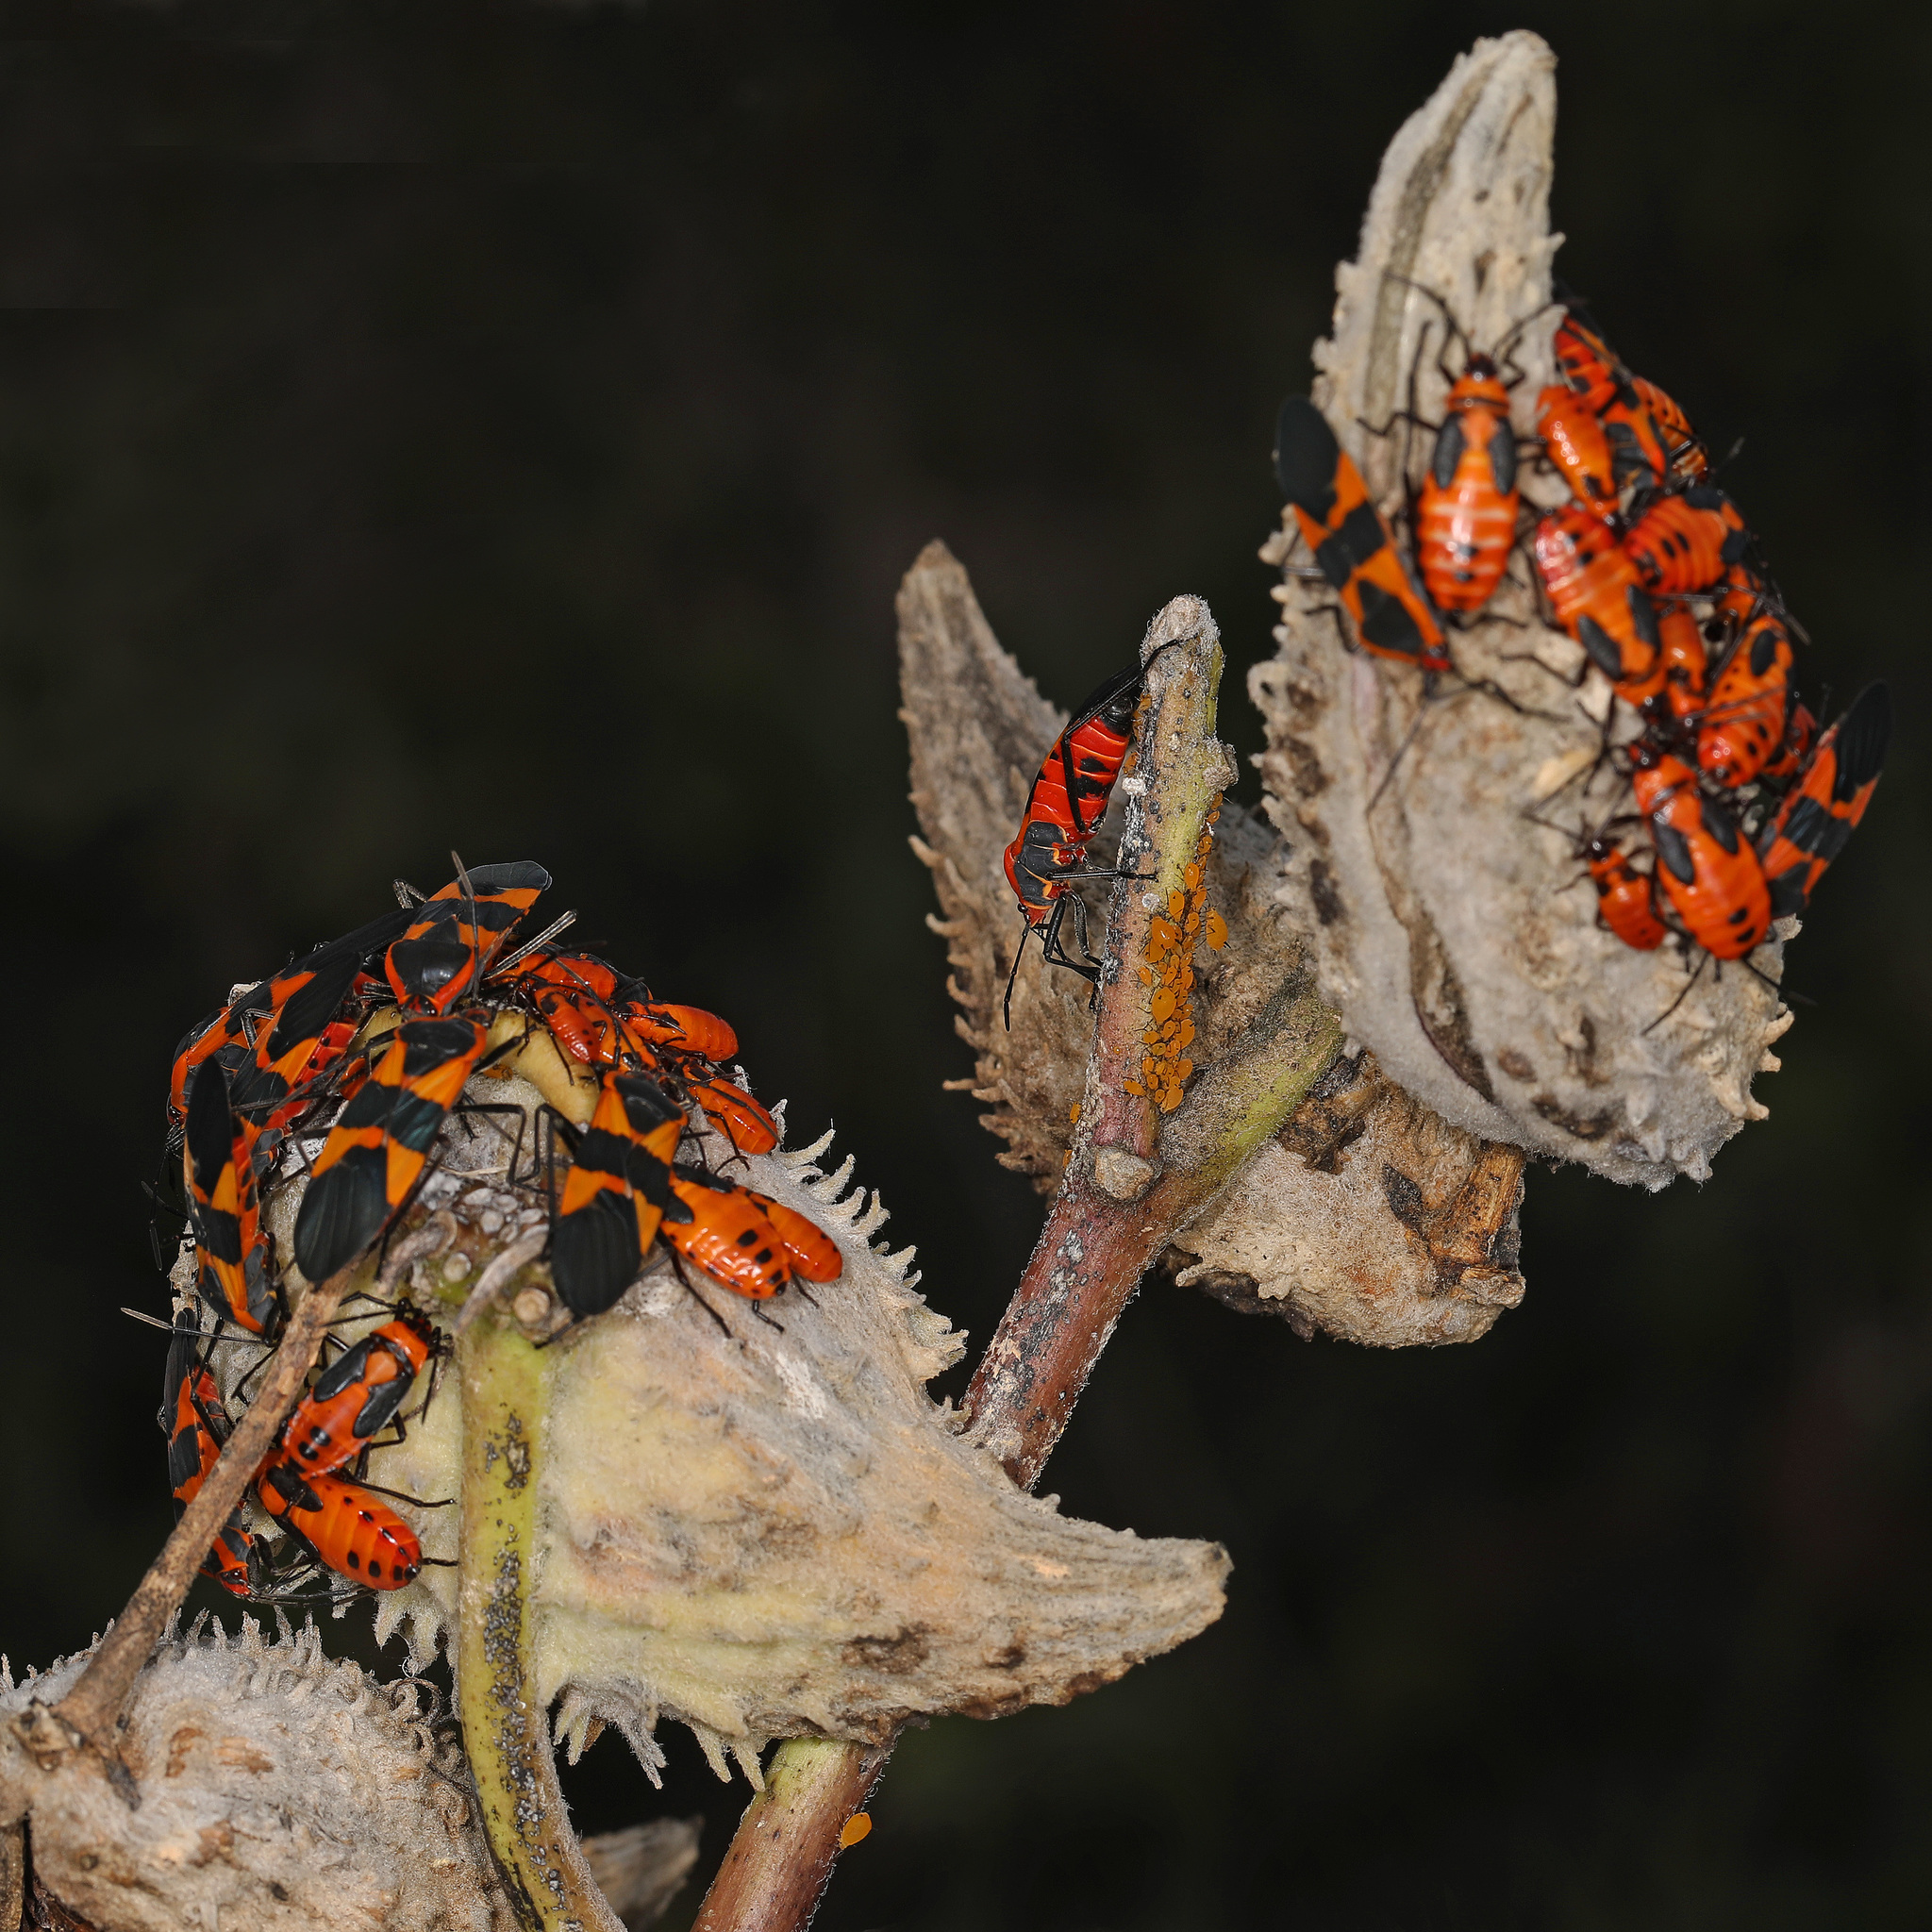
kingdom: Animalia
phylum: Arthropoda
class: Insecta
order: Hemiptera
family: Lygaeidae
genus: Oncopeltus
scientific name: Oncopeltus fasciatus
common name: Large milkweed bug
